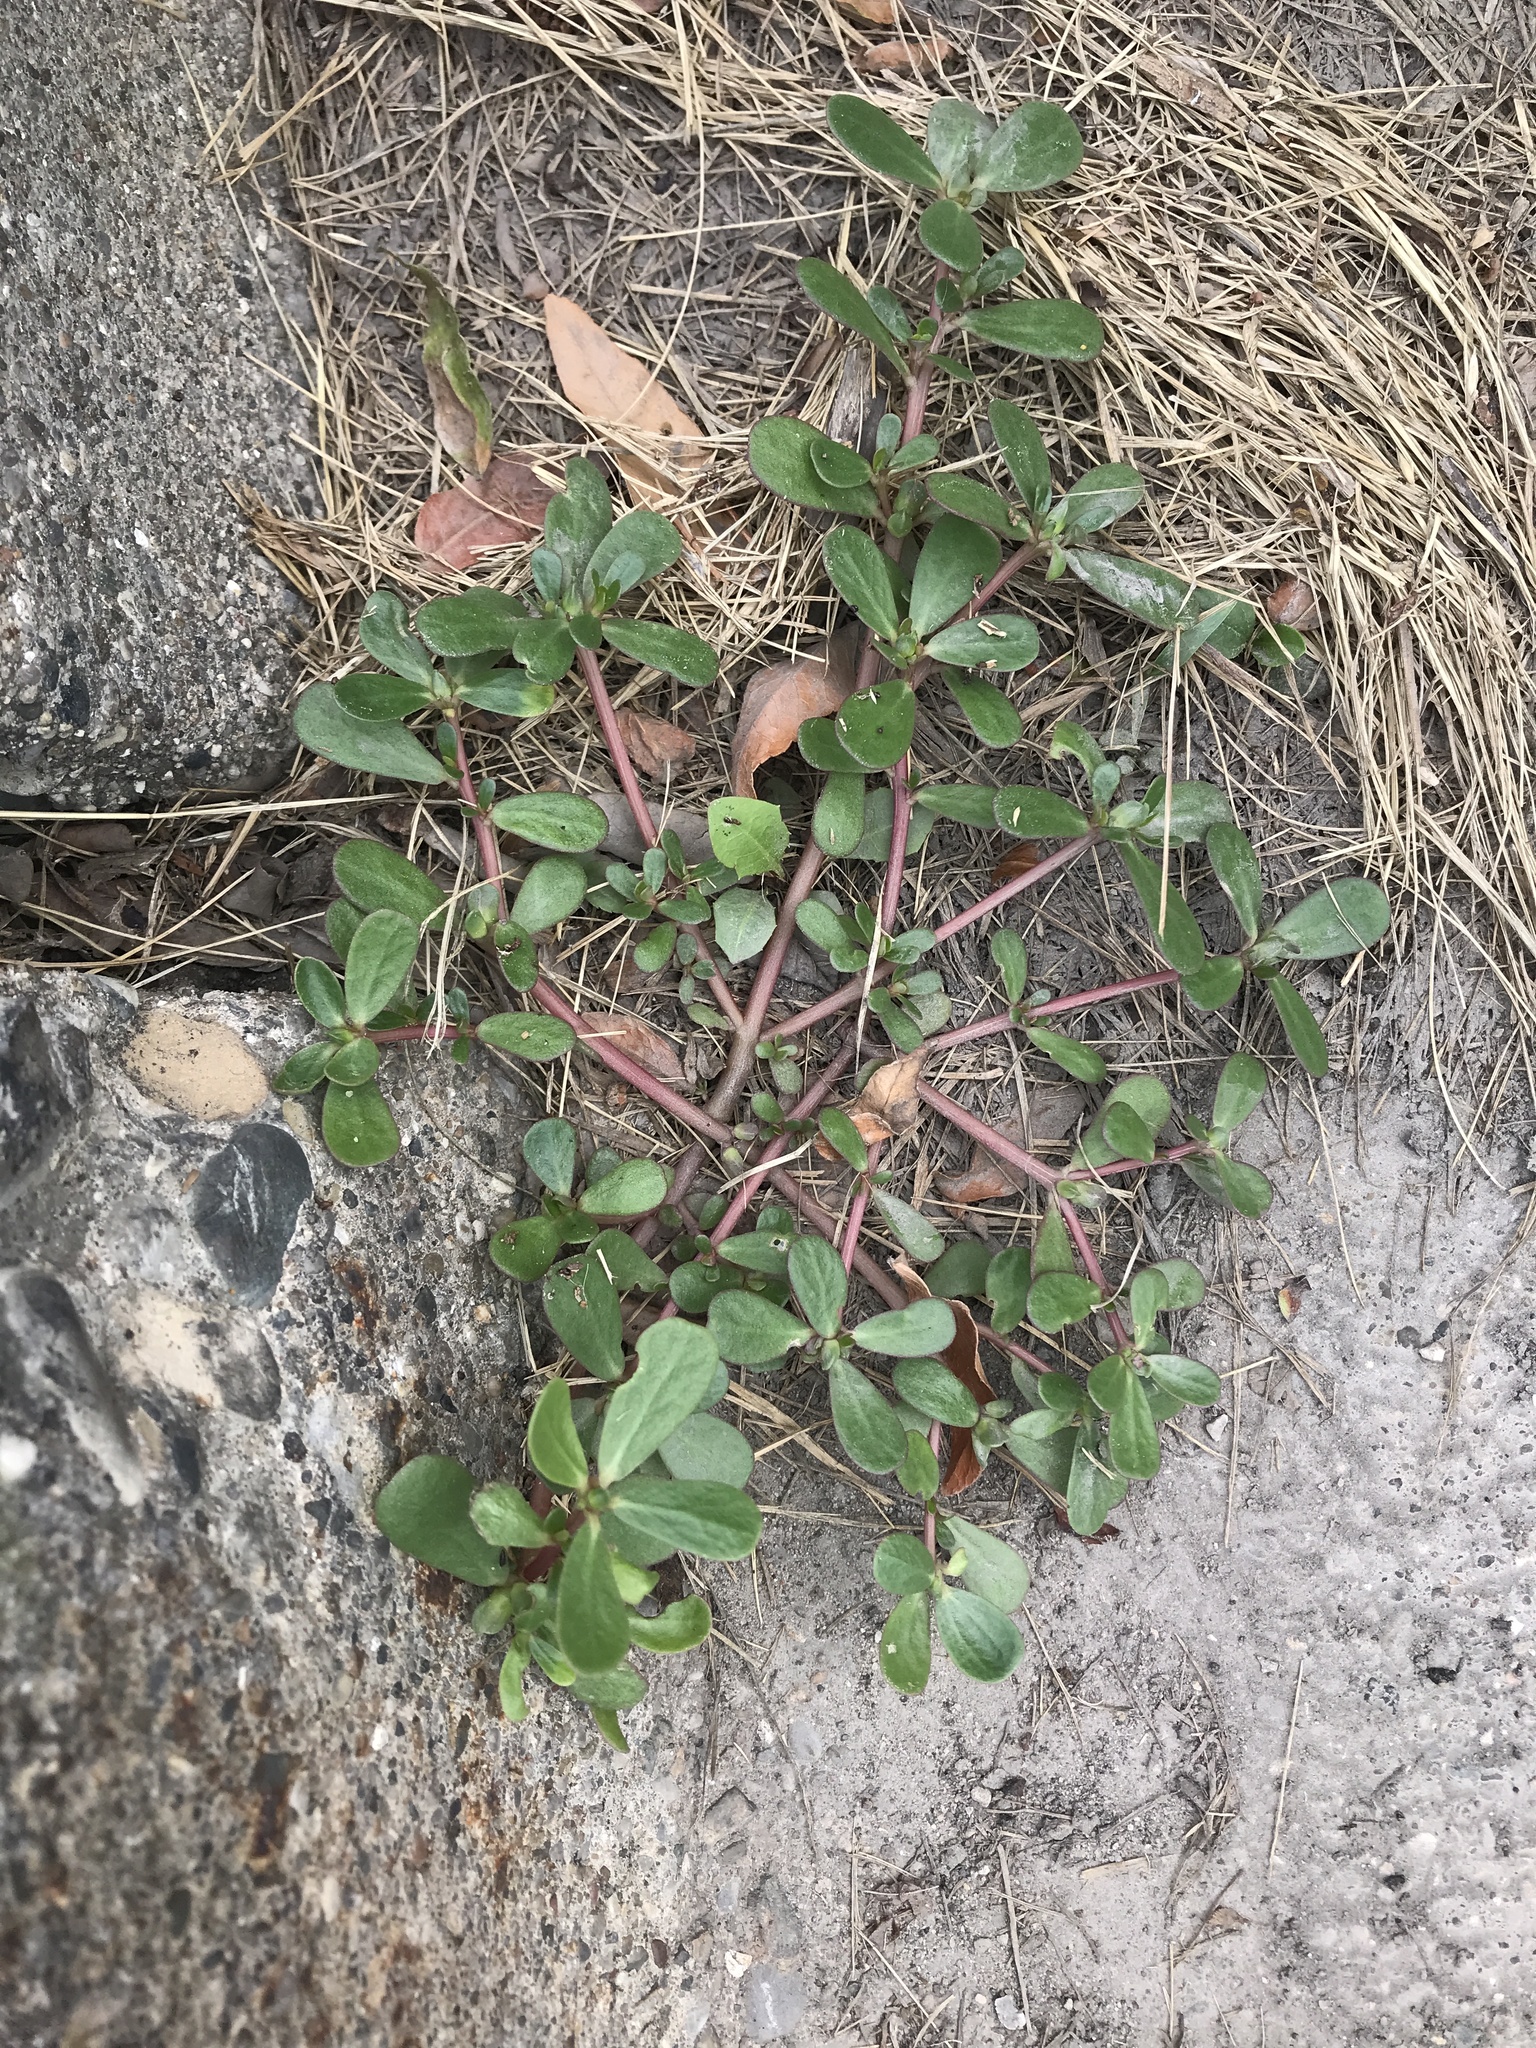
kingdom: Plantae
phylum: Tracheophyta
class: Magnoliopsida
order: Caryophyllales
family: Portulacaceae
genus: Portulaca
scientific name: Portulaca oleracea
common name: Common purslane
